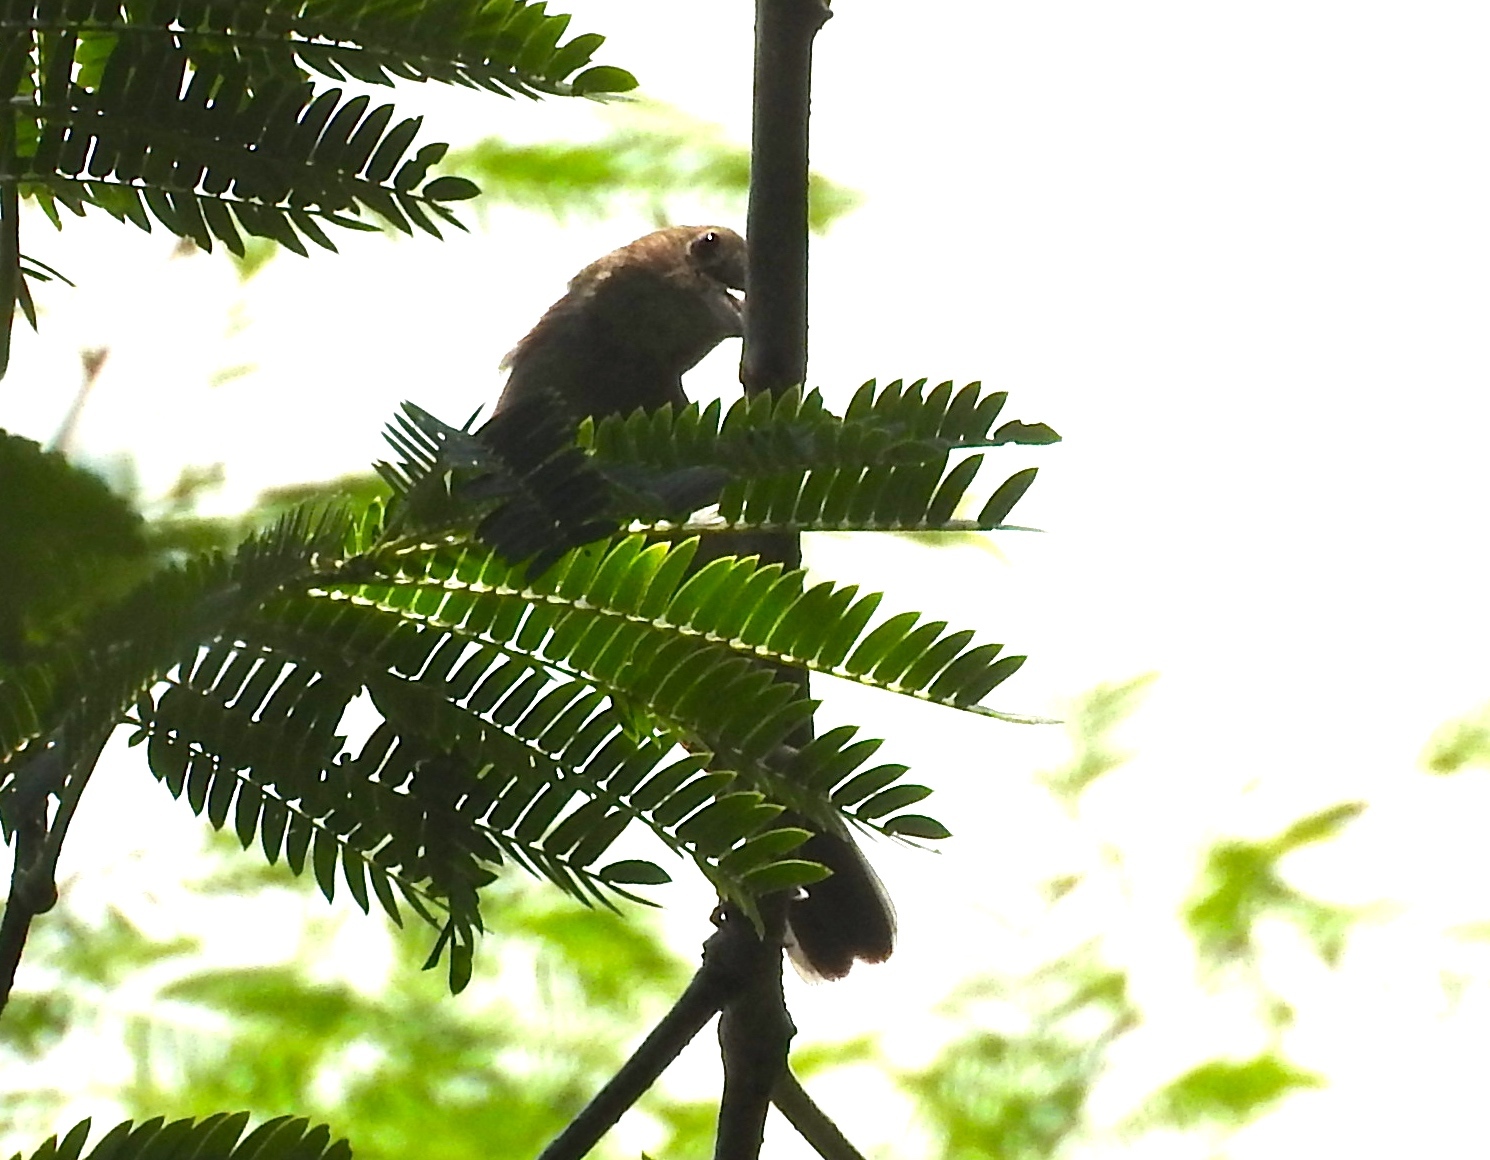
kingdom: Animalia
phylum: Chordata
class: Aves
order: Passeriformes
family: Cardinalidae
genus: Passerina
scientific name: Passerina
